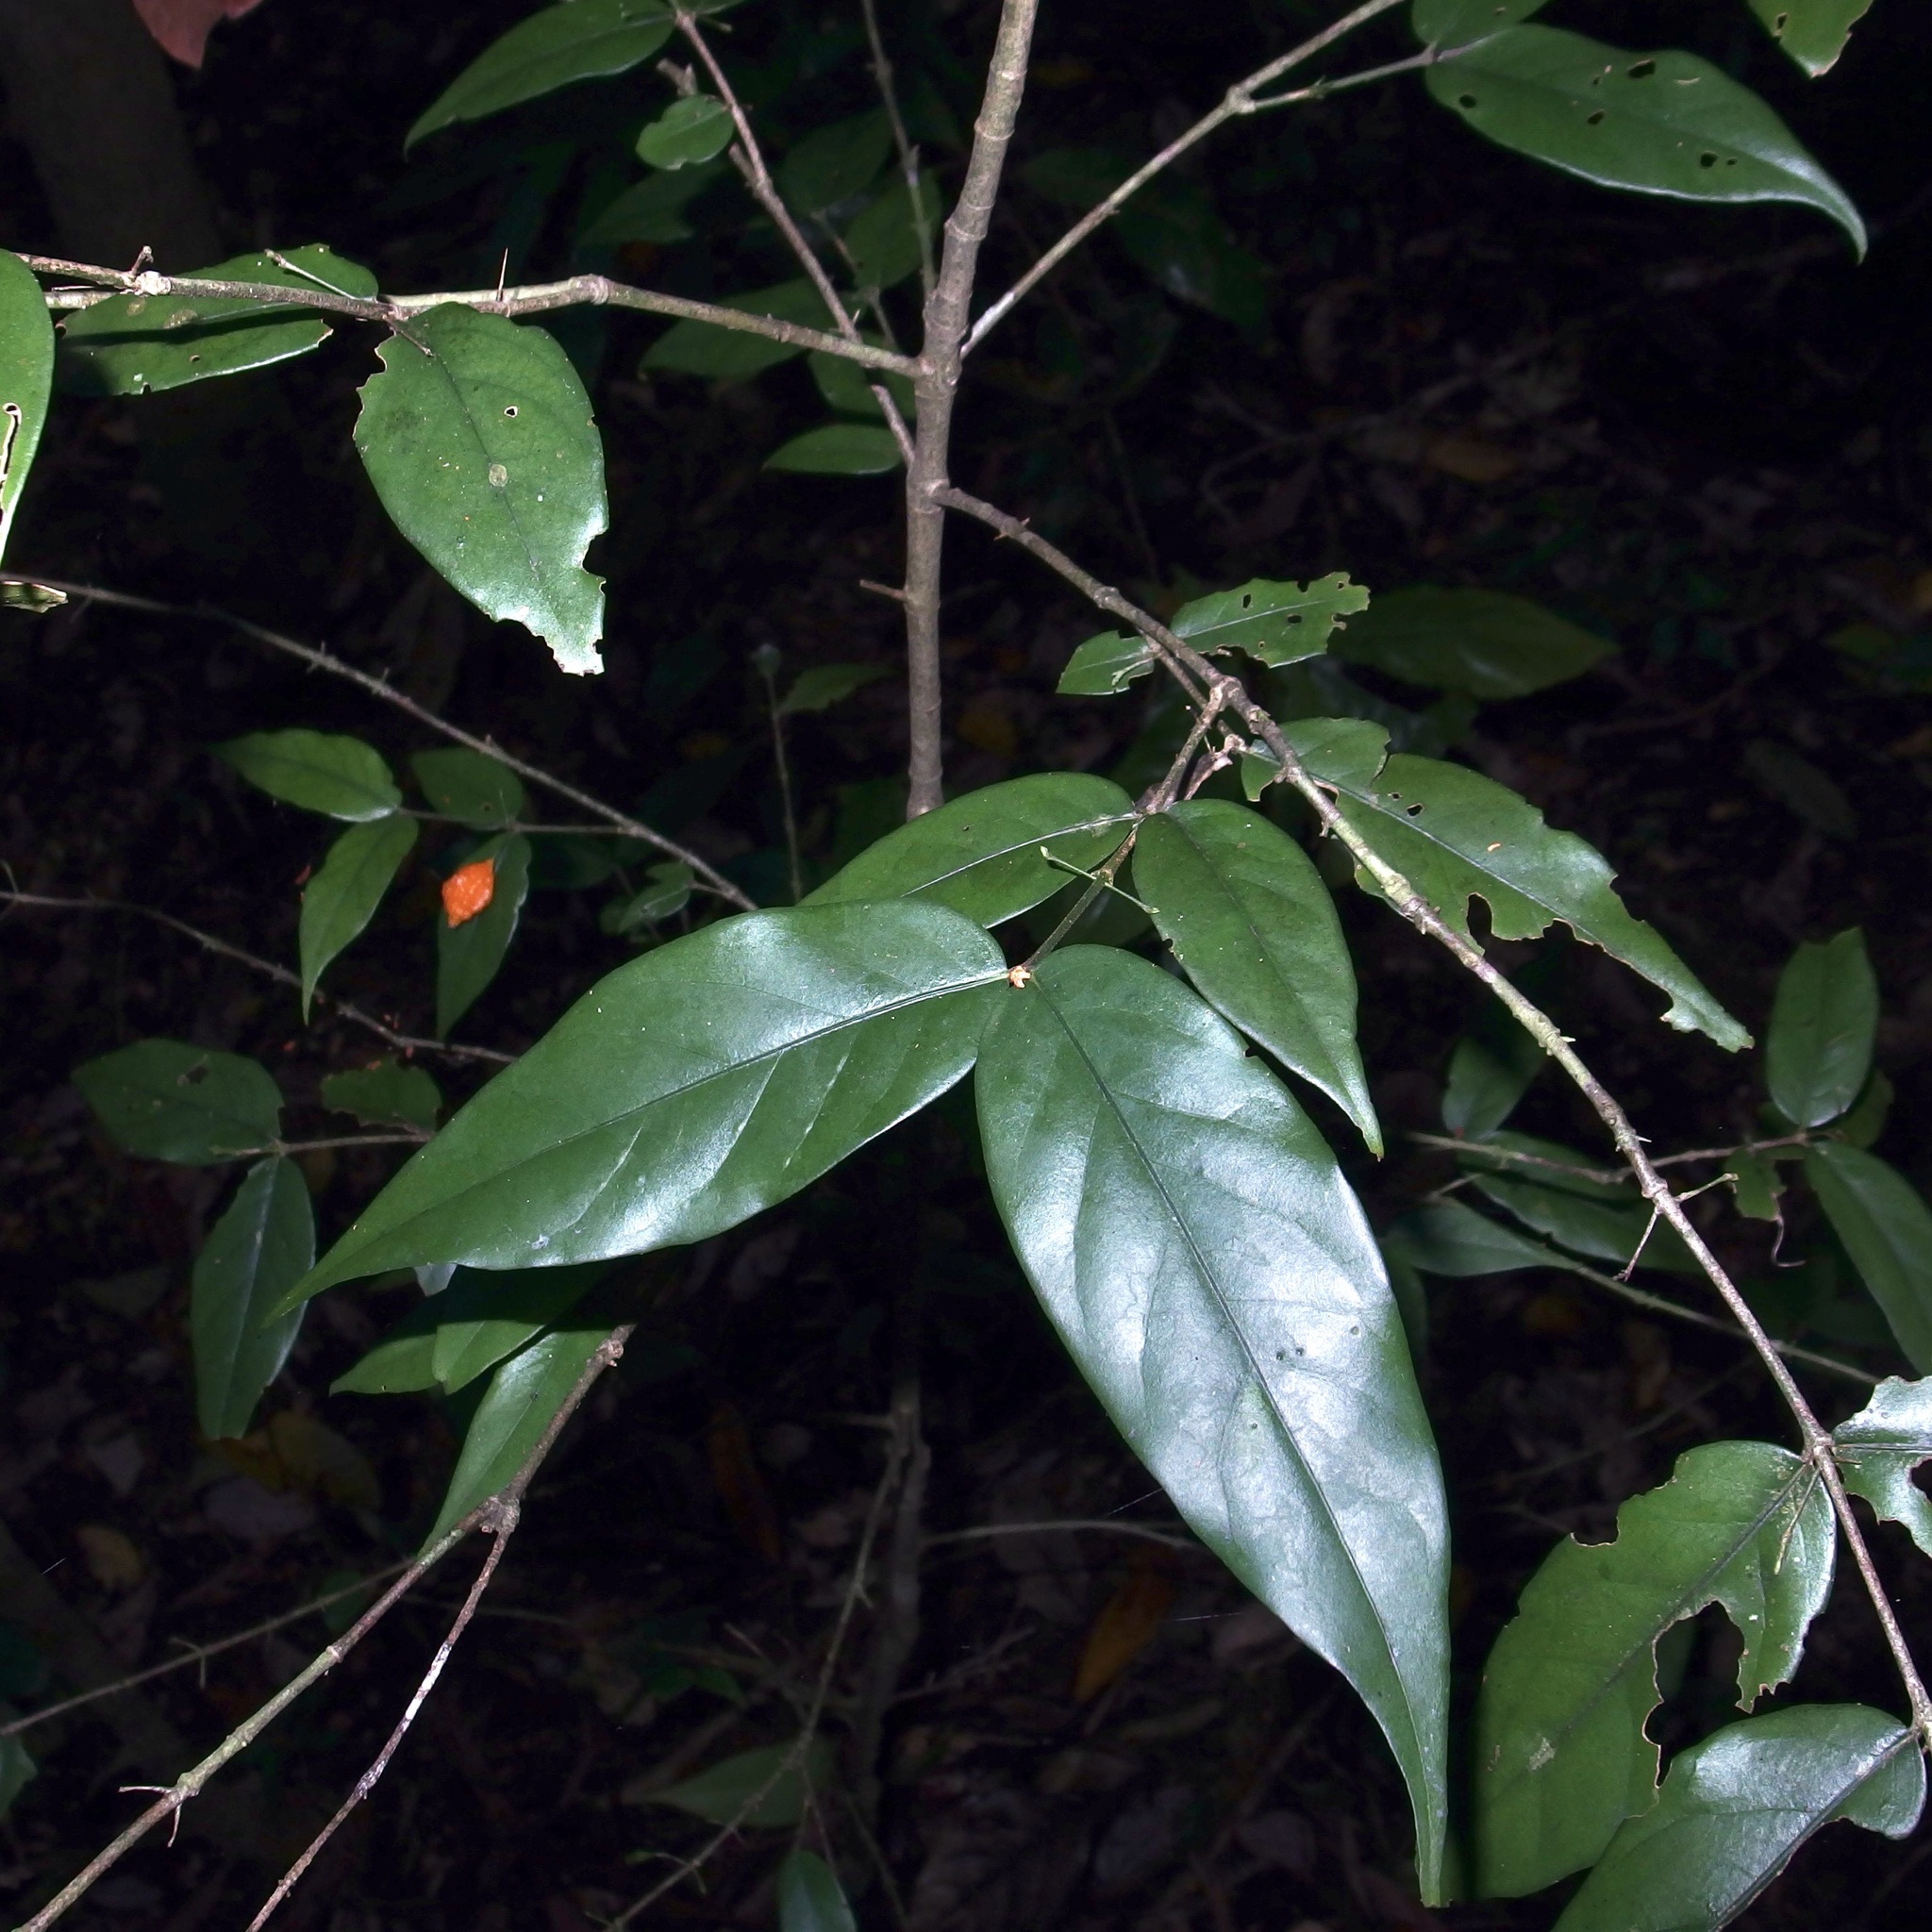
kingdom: Plantae
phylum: Tracheophyta
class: Magnoliopsida
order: Gentianales
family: Rubiaceae
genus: Randia
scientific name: Randia tuberculosa
